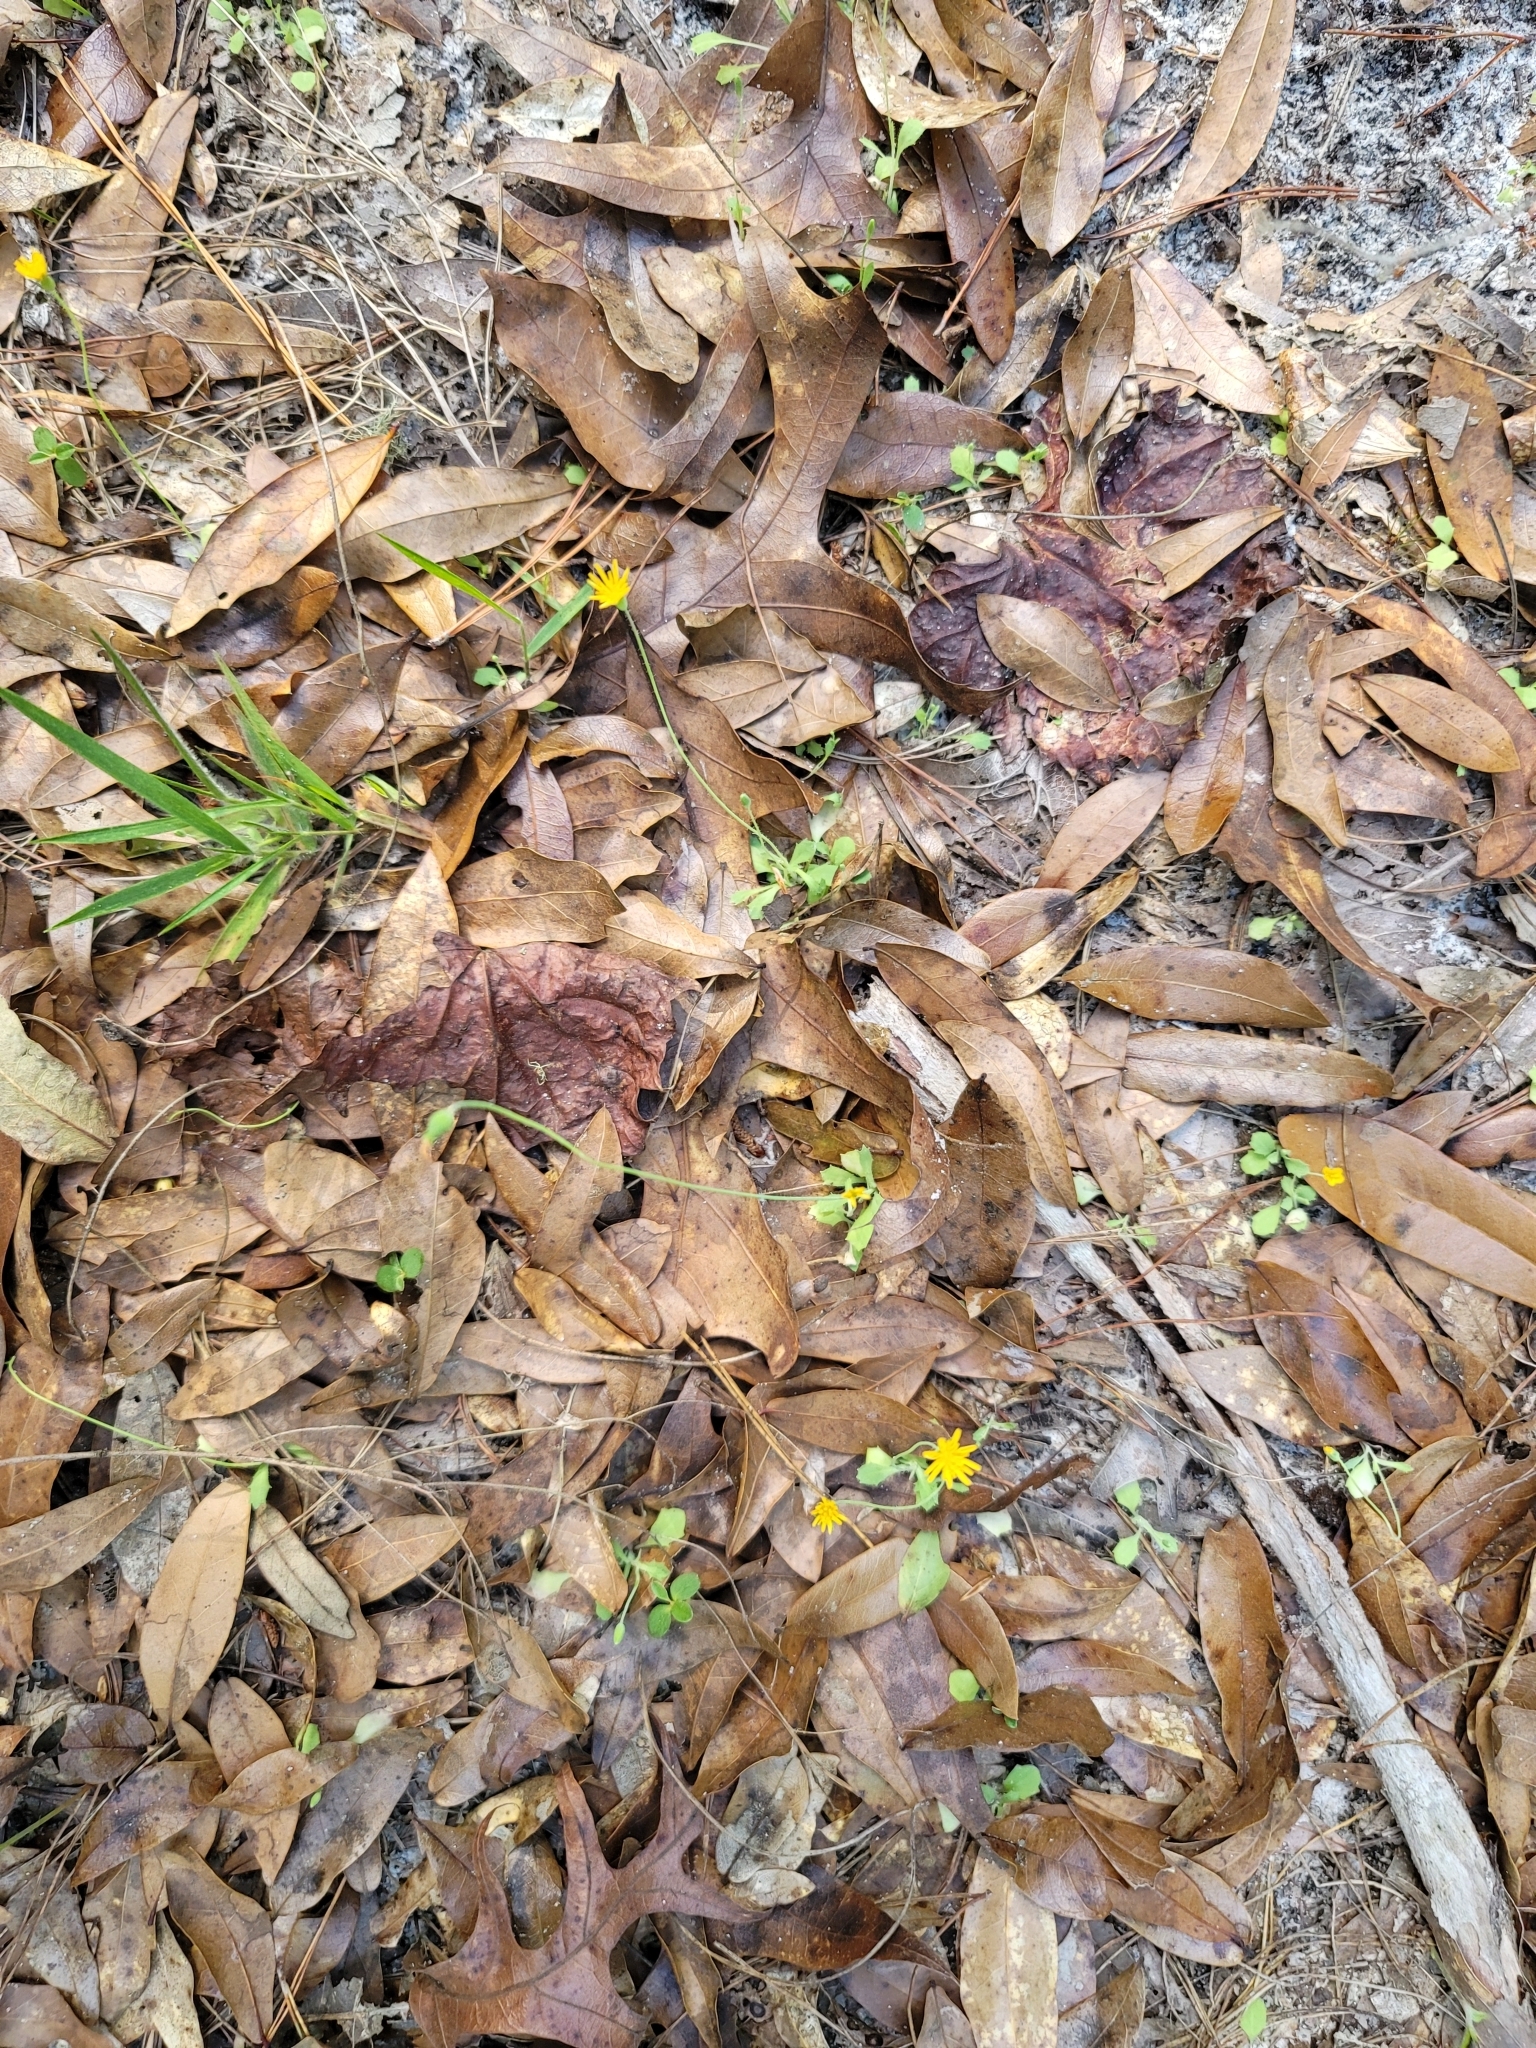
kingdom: Plantae
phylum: Tracheophyta
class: Magnoliopsida
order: Asterales
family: Asteraceae
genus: Krigia
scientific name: Krigia virginica
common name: Virginia dwarf-dandelion
